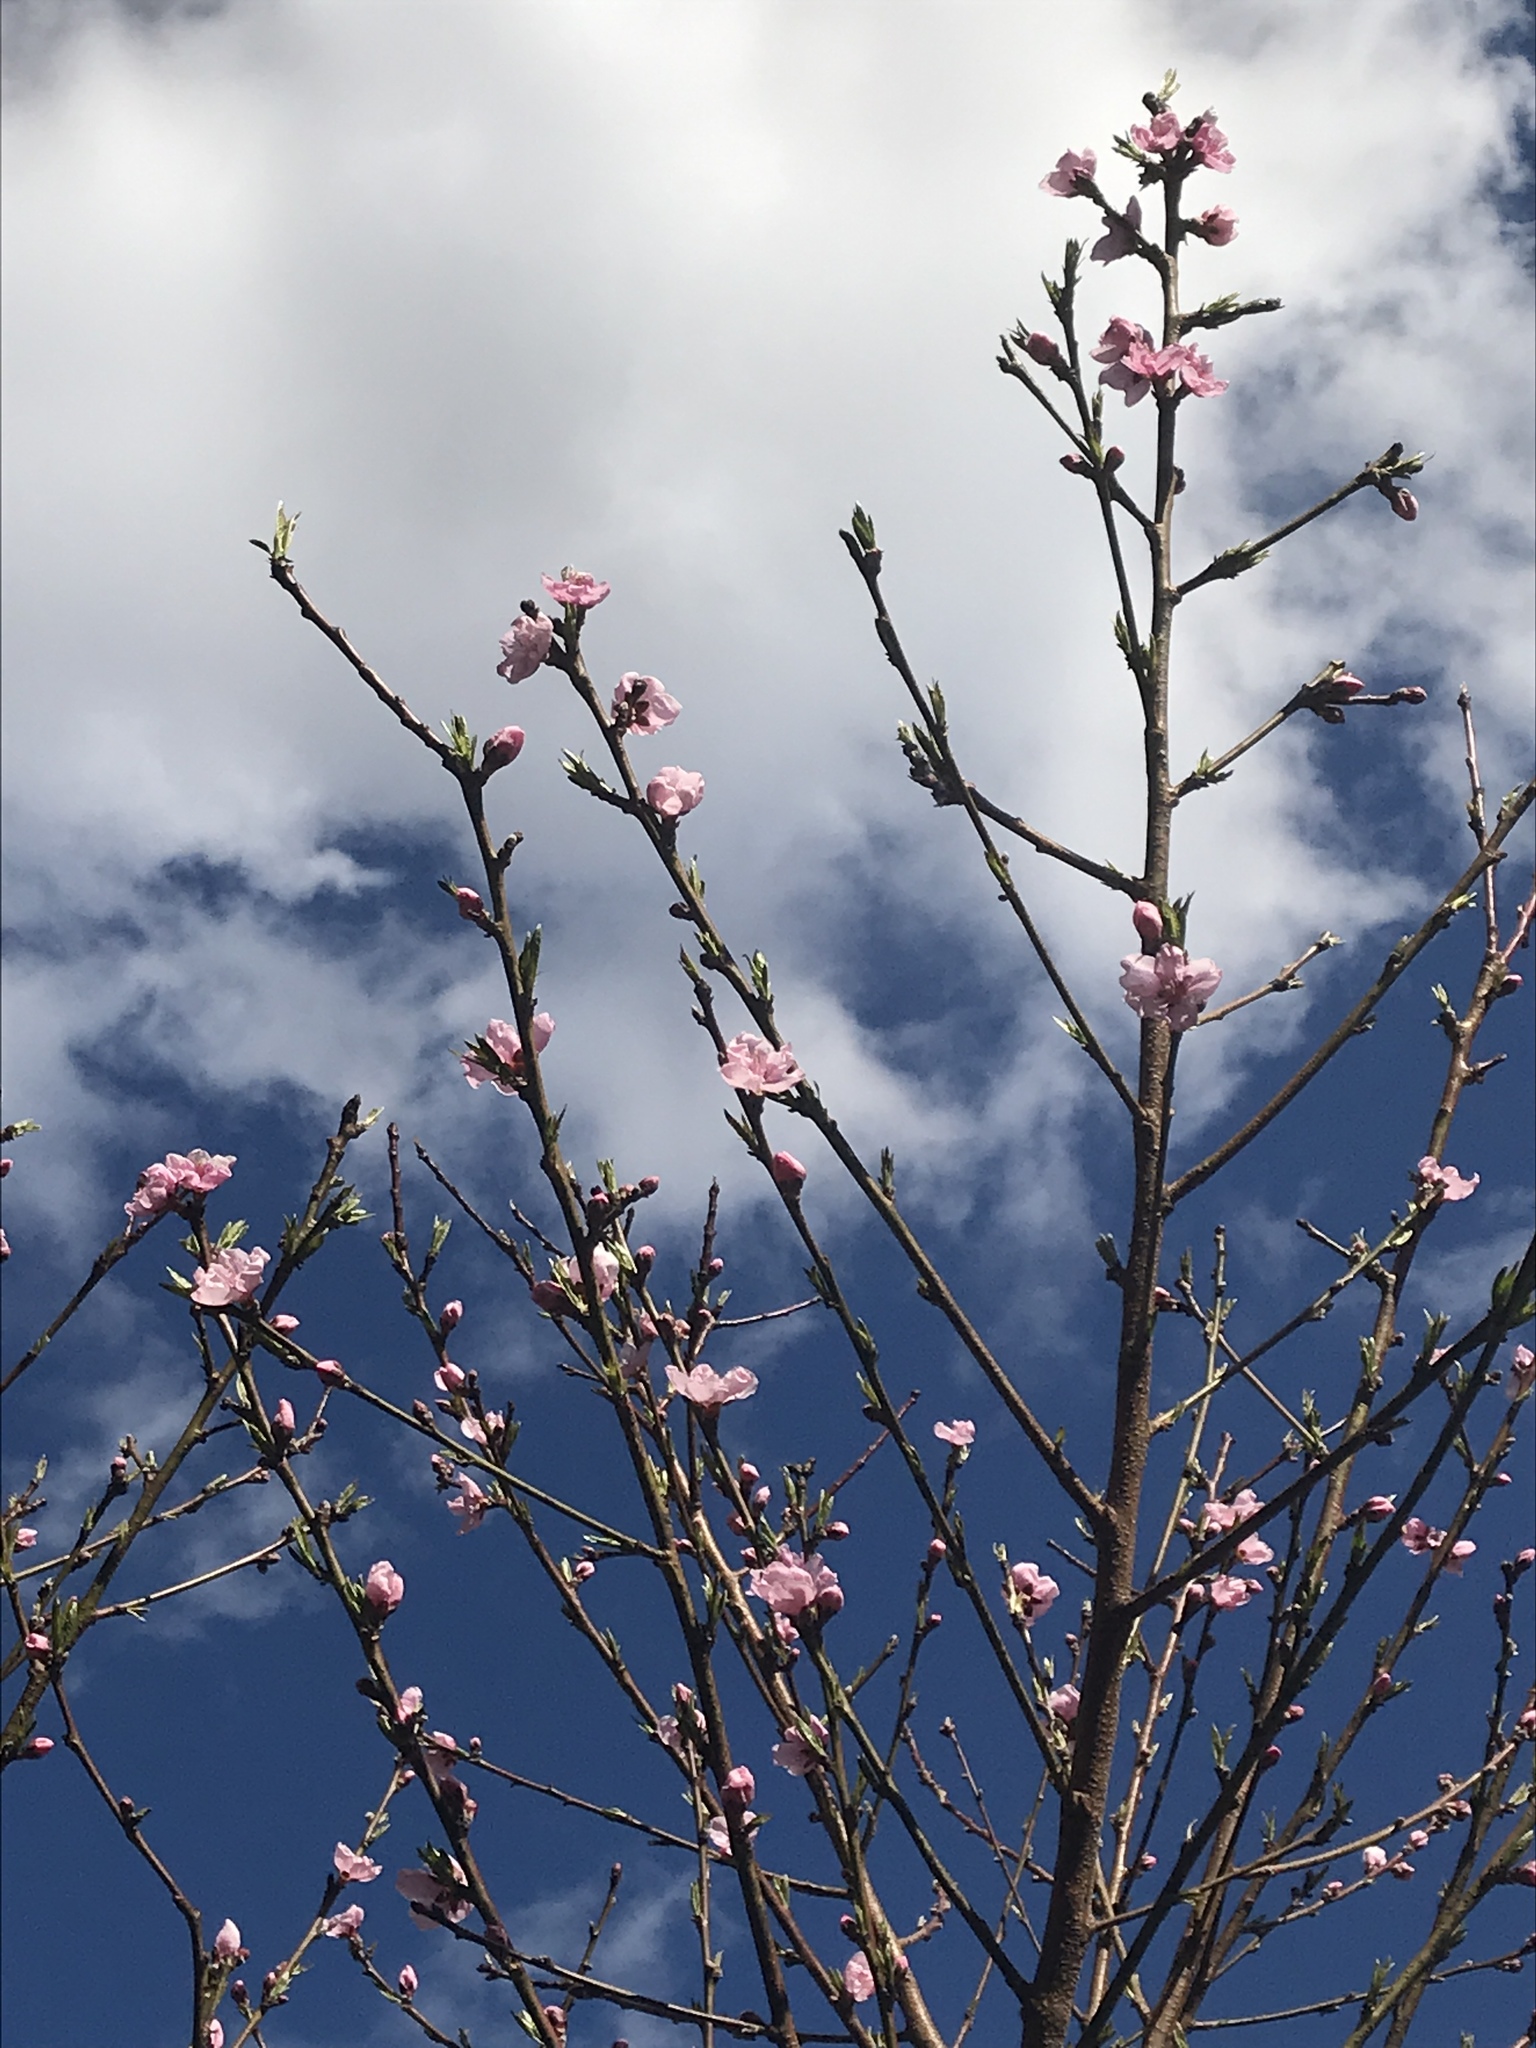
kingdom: Plantae
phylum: Tracheophyta
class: Magnoliopsida
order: Rosales
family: Rosaceae
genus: Prunus
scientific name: Prunus persica
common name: Peach
